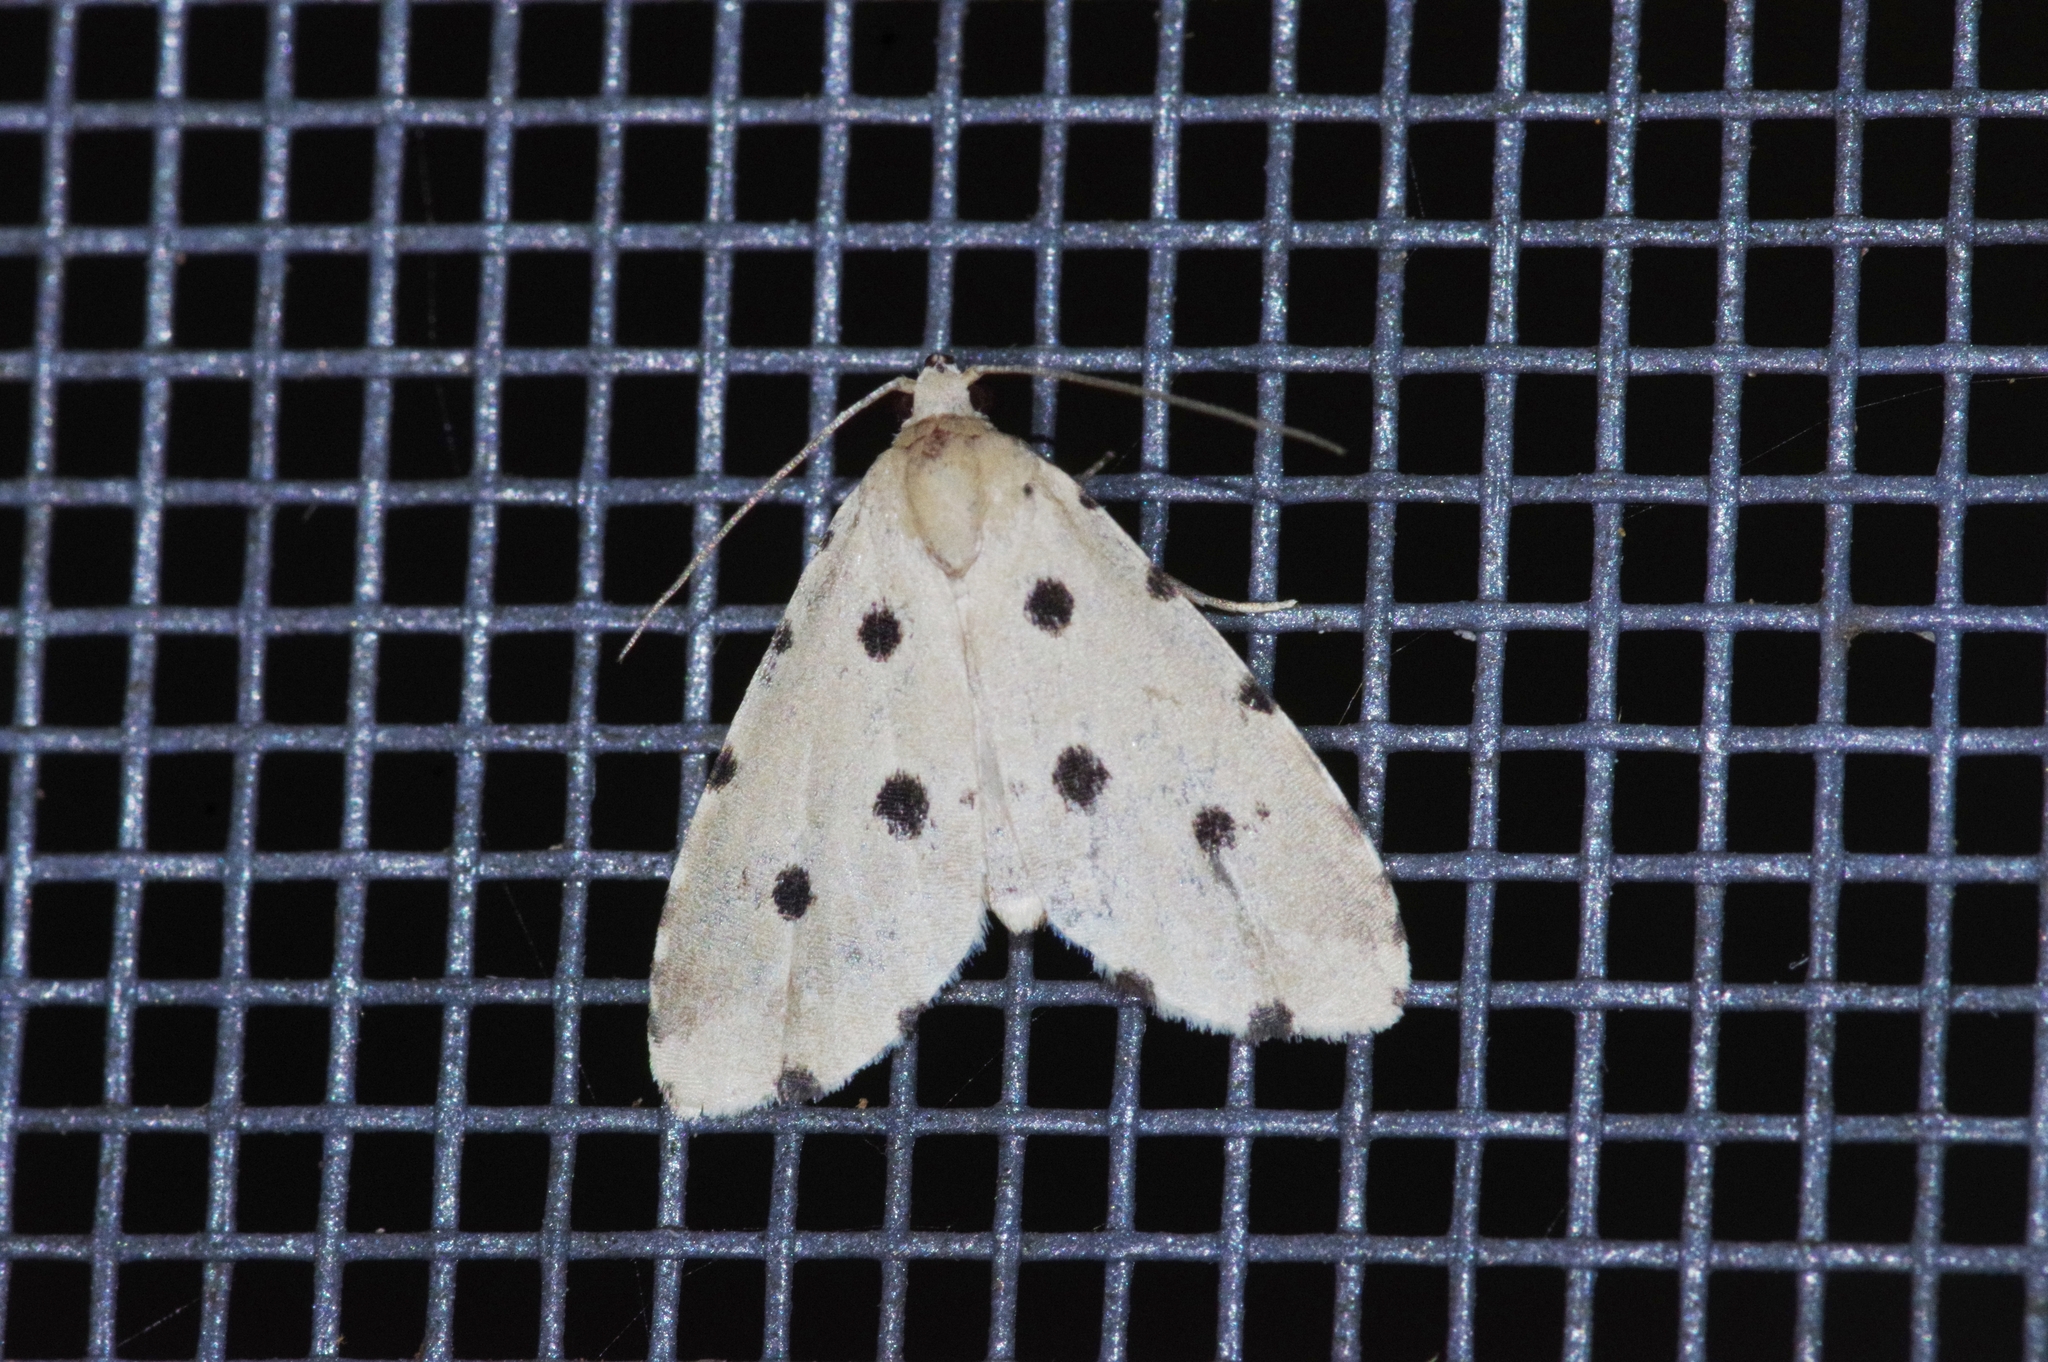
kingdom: Animalia
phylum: Arthropoda
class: Insecta
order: Lepidoptera
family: Noctuidae
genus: Metaemene
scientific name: Metaemene atrigutta
